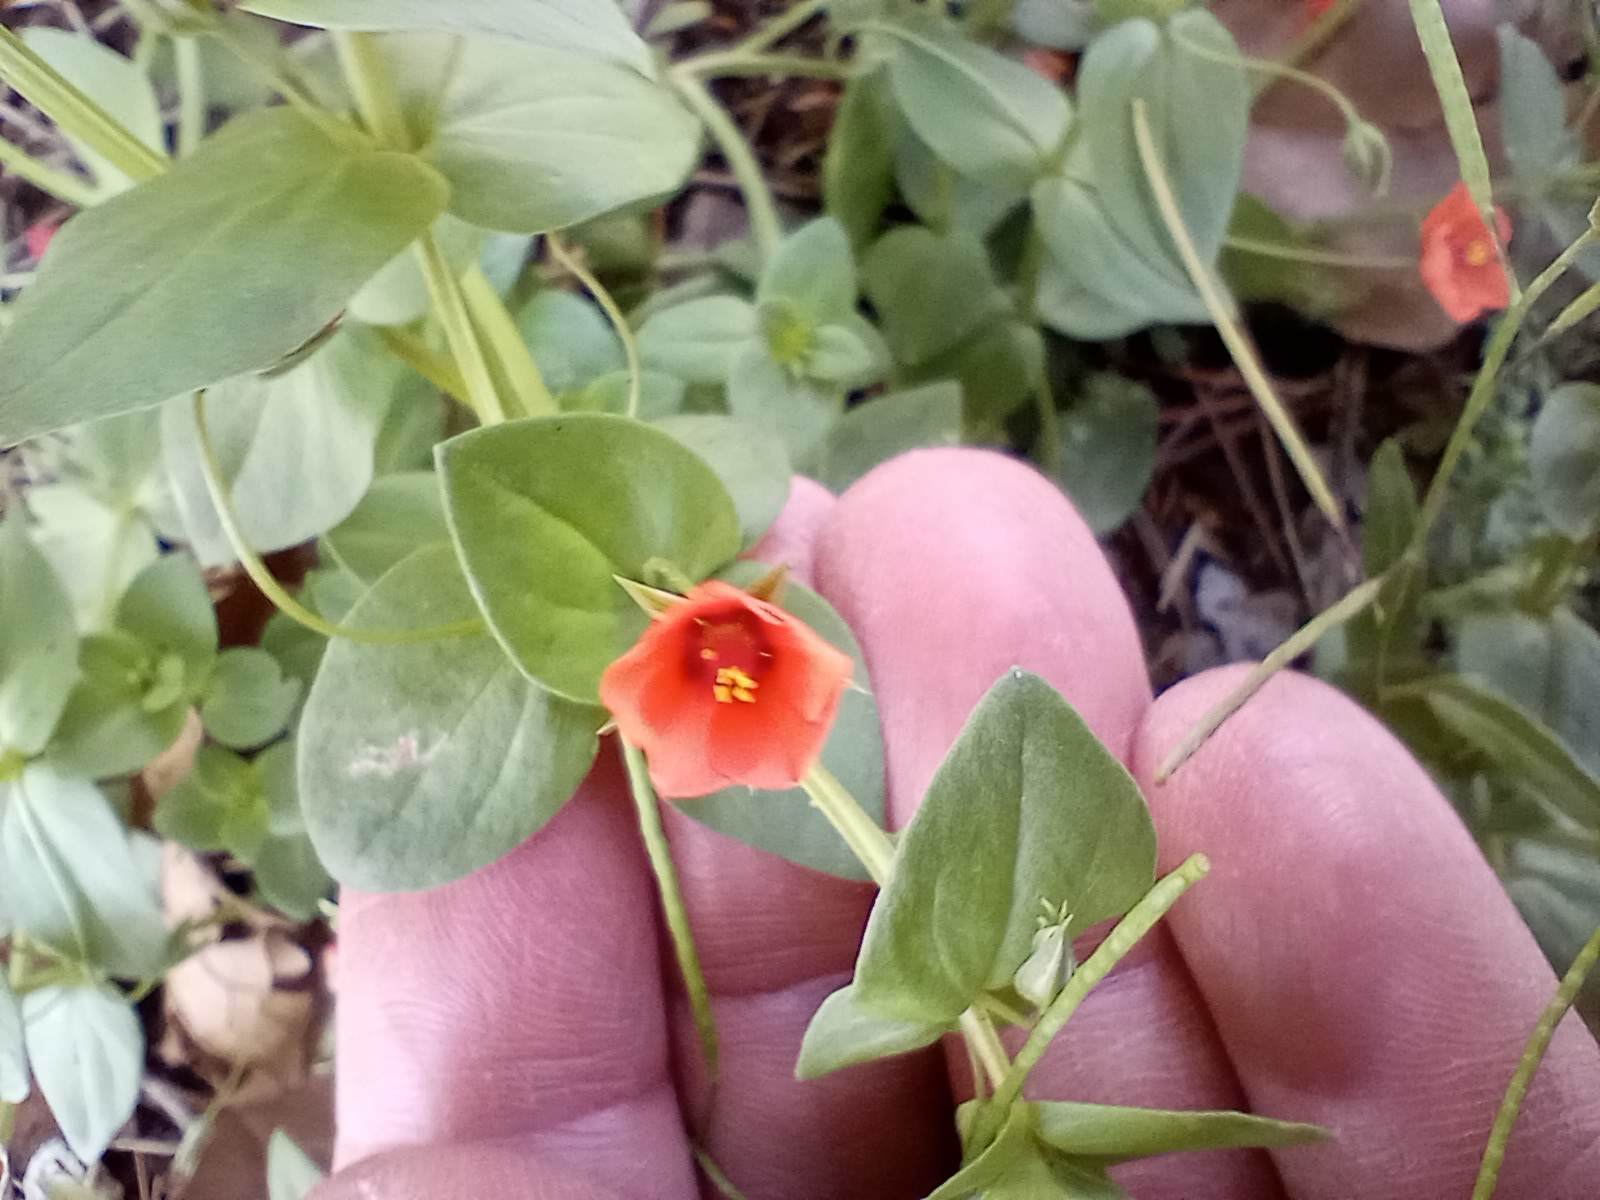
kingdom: Plantae
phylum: Tracheophyta
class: Magnoliopsida
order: Ericales
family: Primulaceae
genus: Lysimachia
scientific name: Lysimachia arvensis
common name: Scarlet pimpernel
